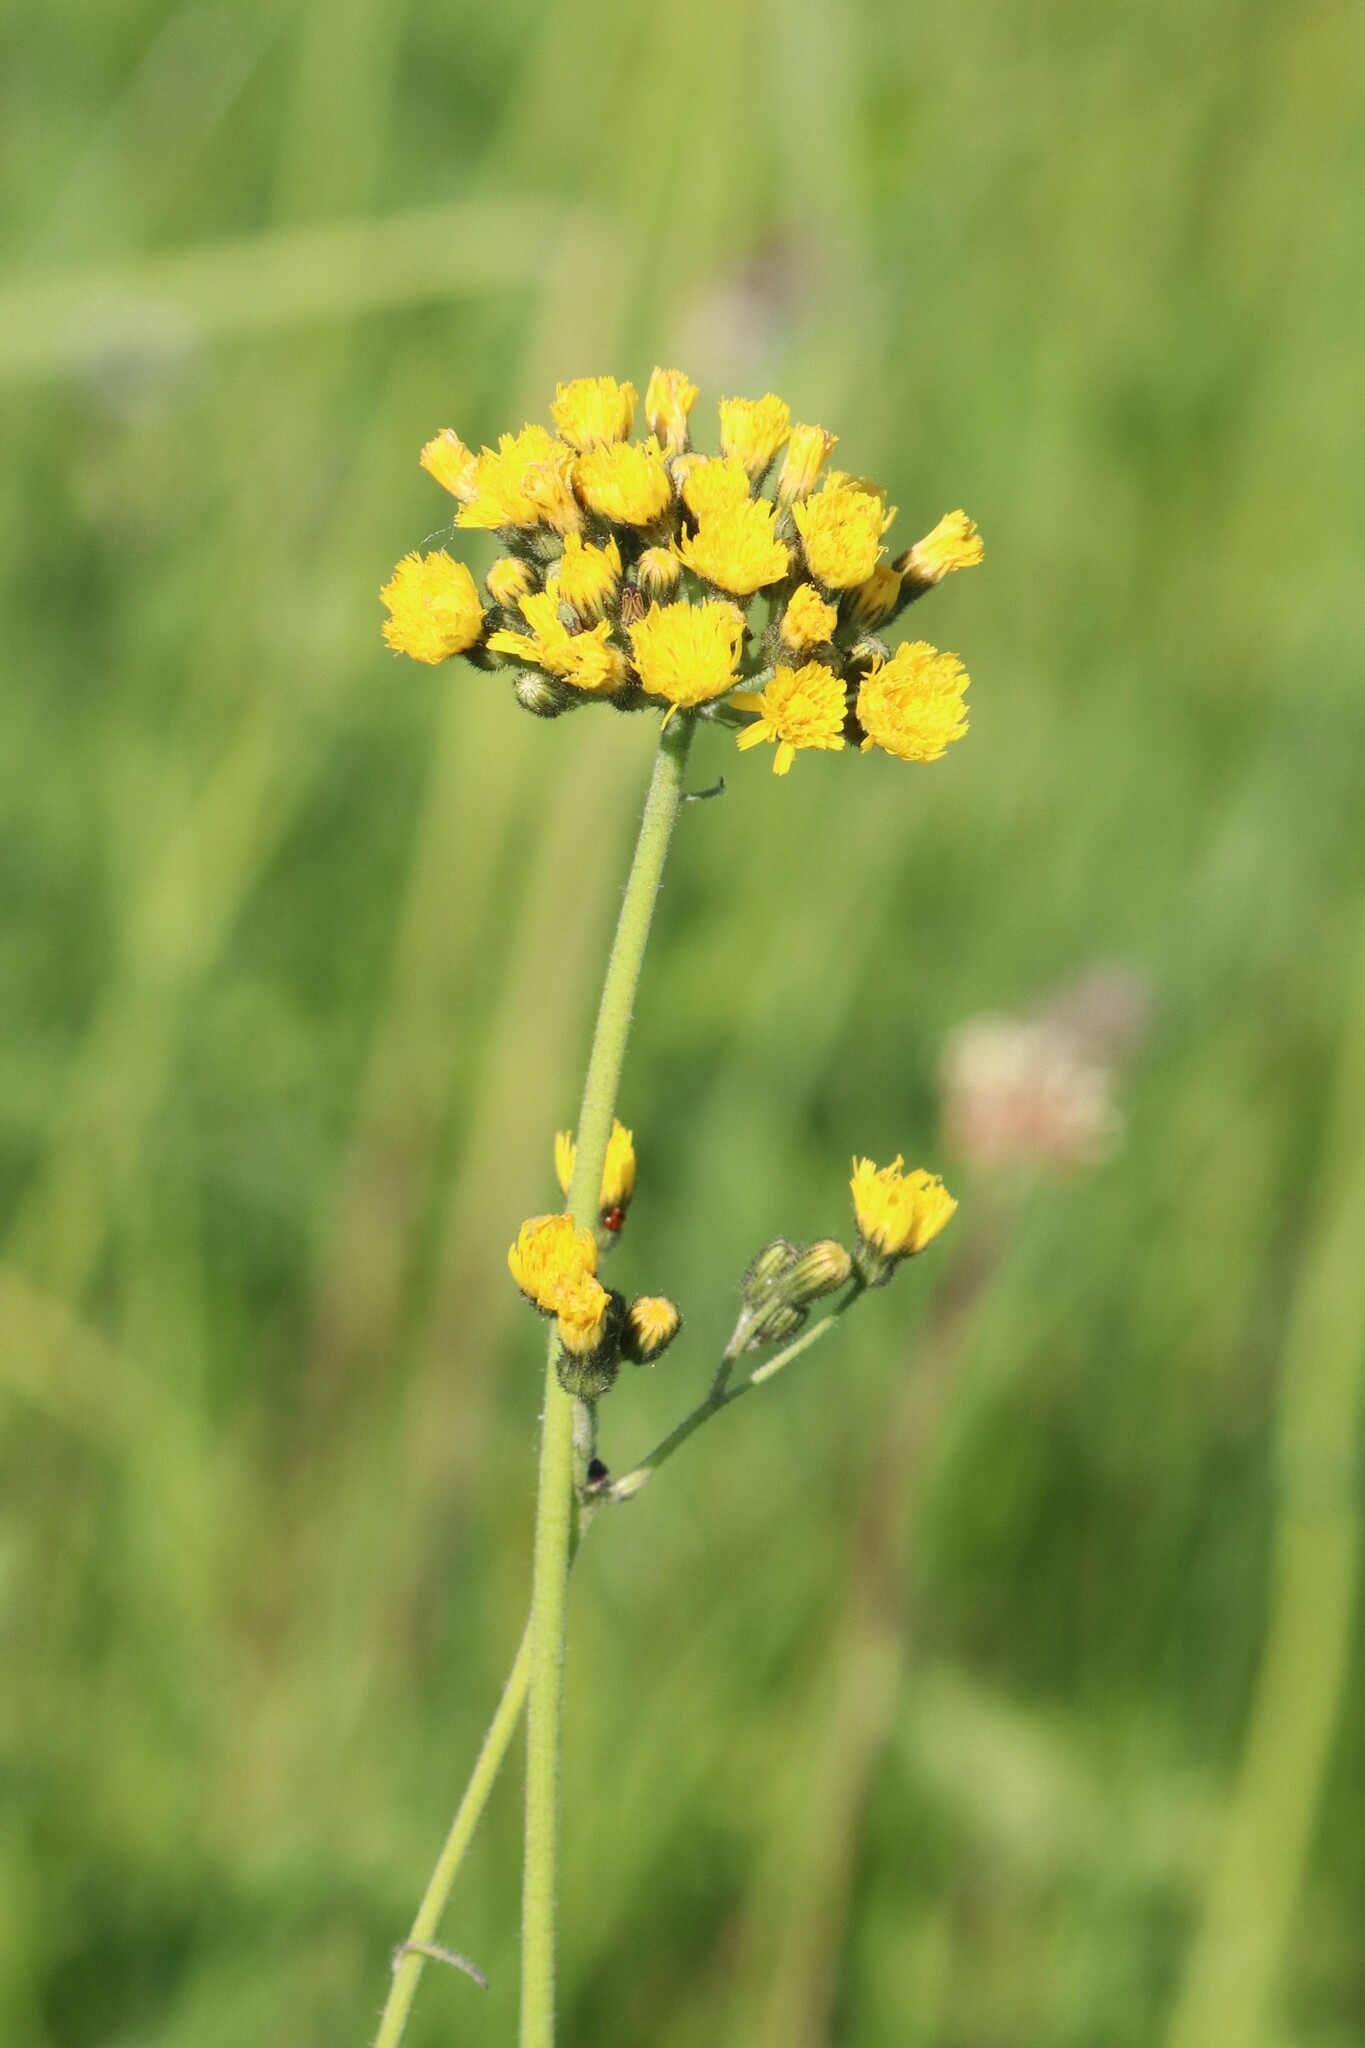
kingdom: Plantae
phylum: Tracheophyta
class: Magnoliopsida
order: Asterales
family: Asteraceae
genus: Pilosella
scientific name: Pilosella
